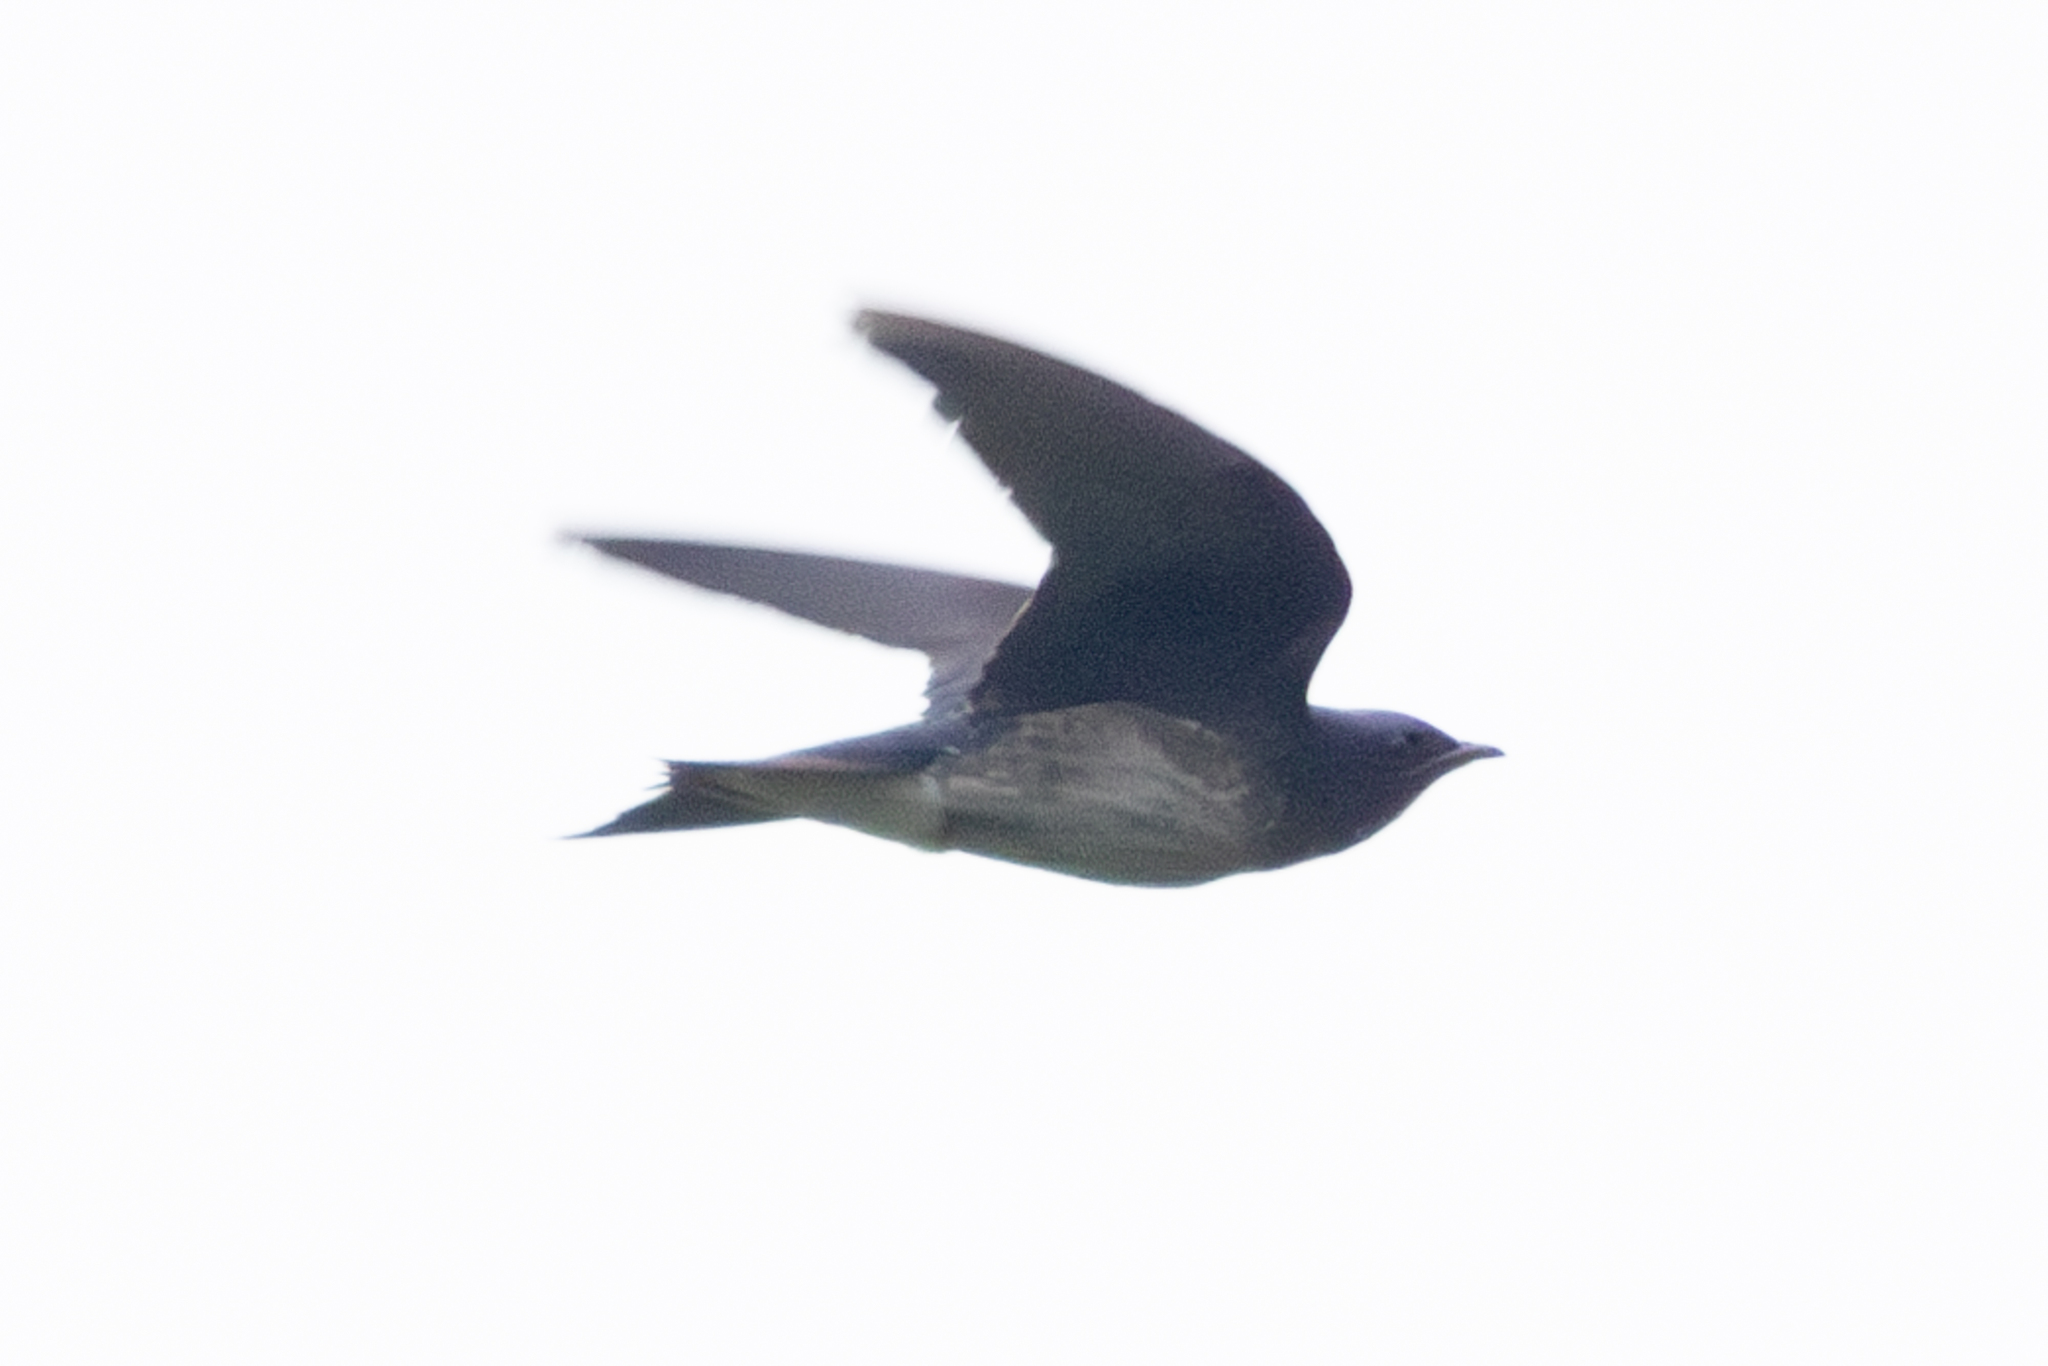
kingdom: Animalia
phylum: Chordata
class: Aves
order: Passeriformes
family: Hirundinidae
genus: Progne
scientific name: Progne chalybea
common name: Grey-breasted martin
